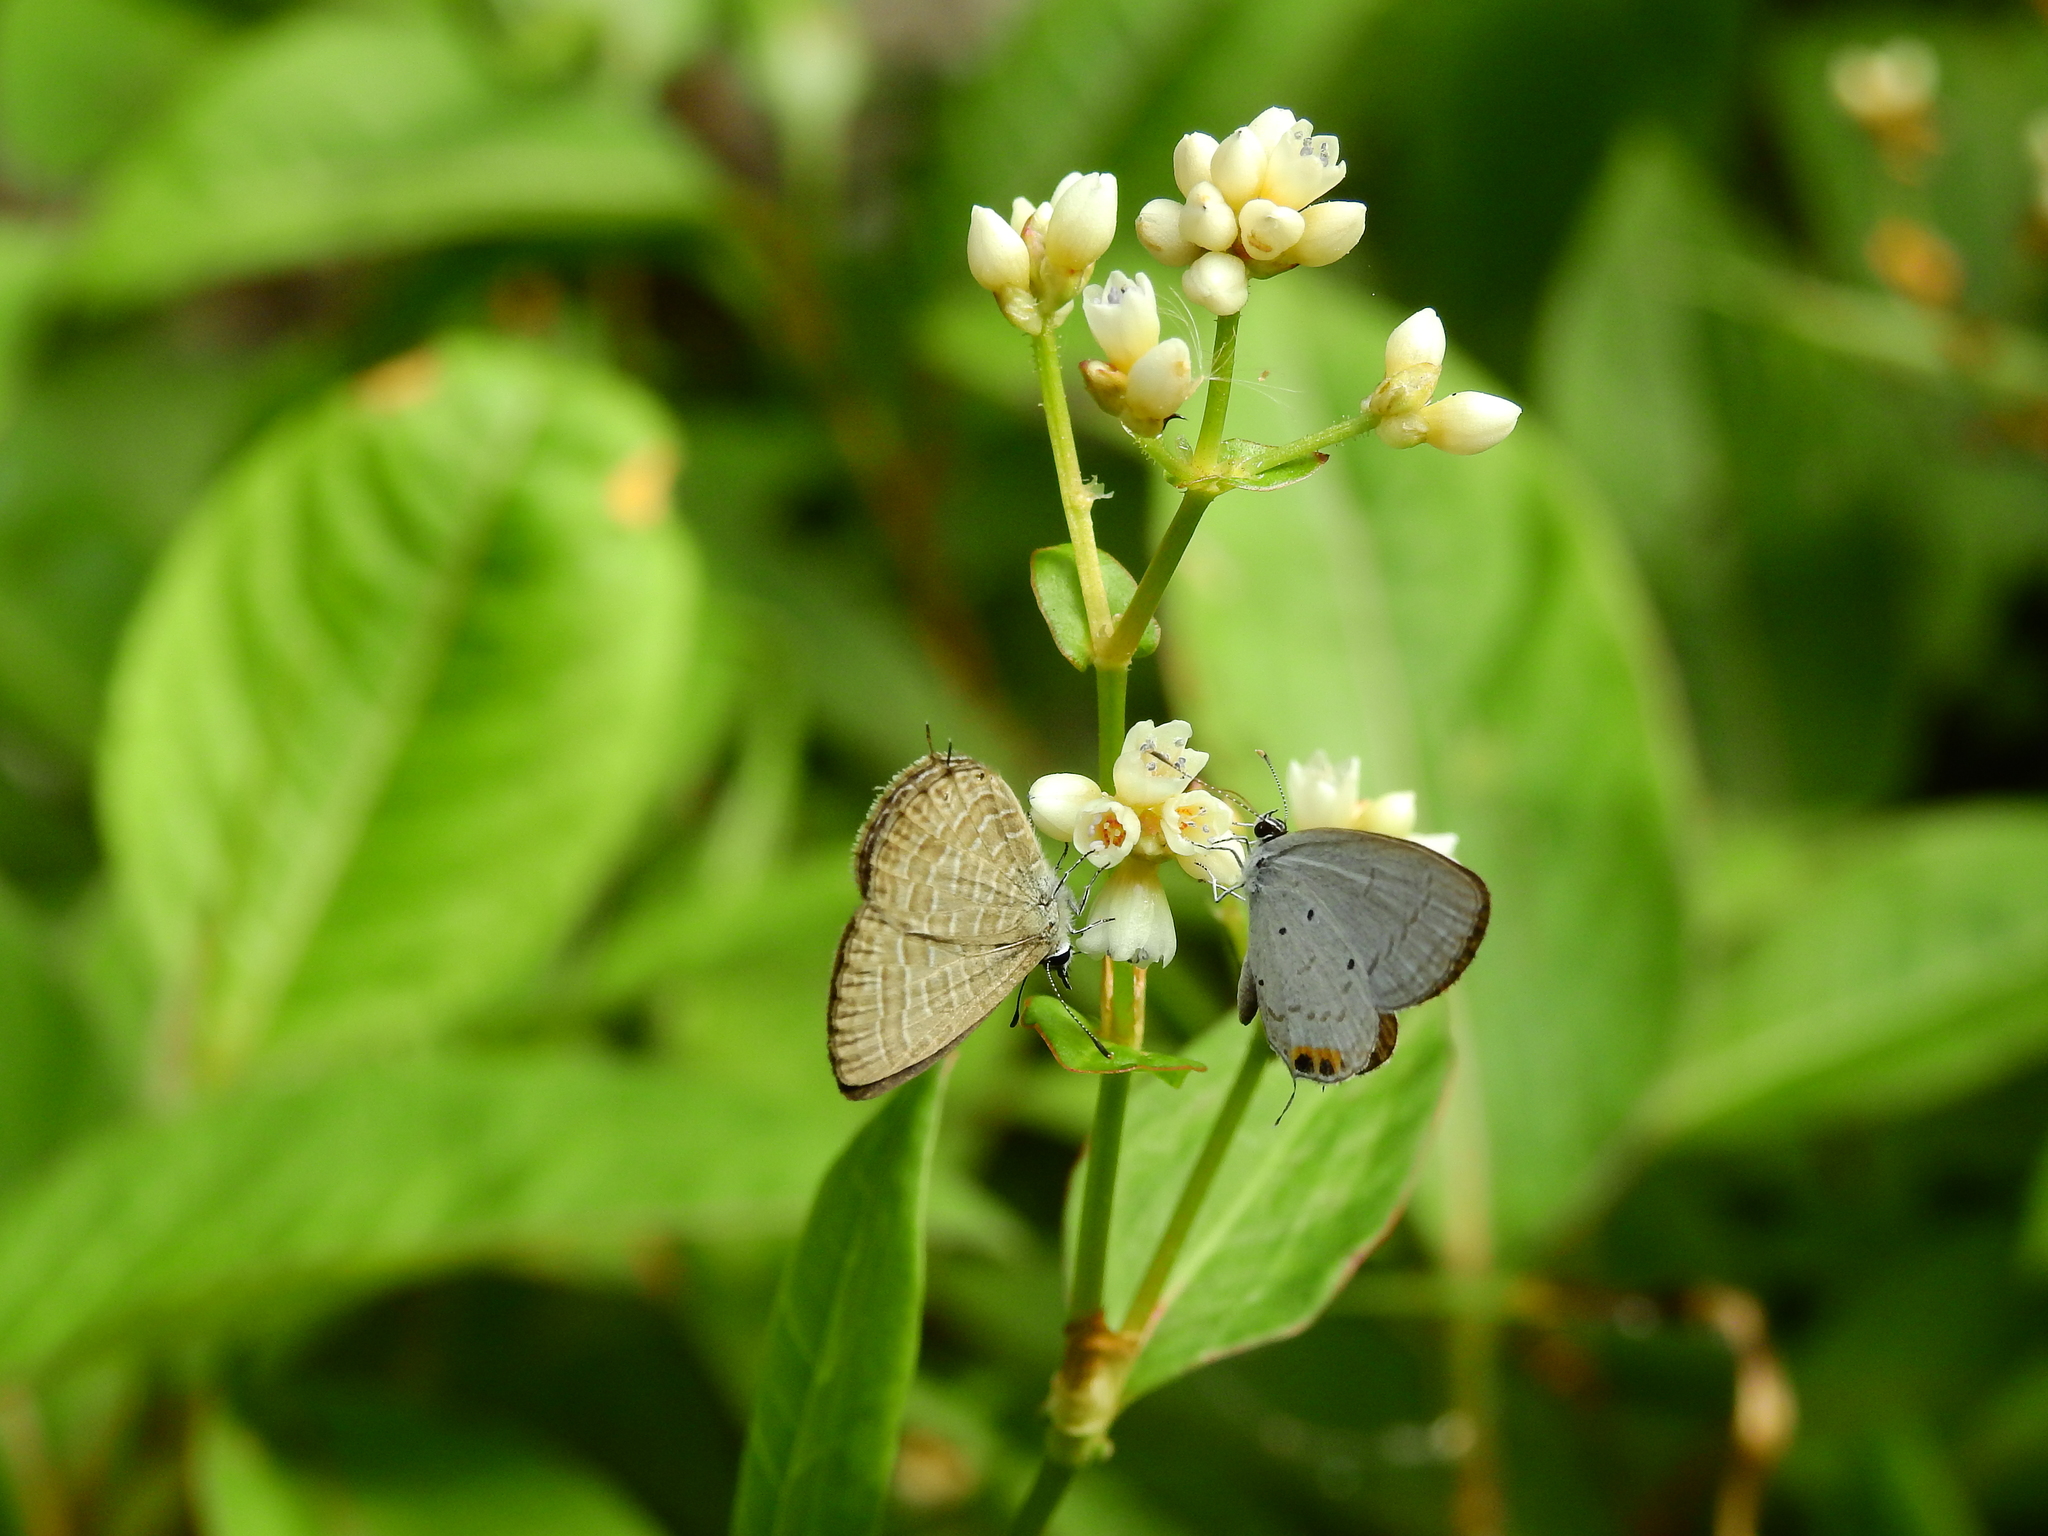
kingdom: Animalia
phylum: Arthropoda
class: Insecta
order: Lepidoptera
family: Lycaenidae
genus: Everes
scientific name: Everes lacturnus
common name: Orange-tipped pea-blue
